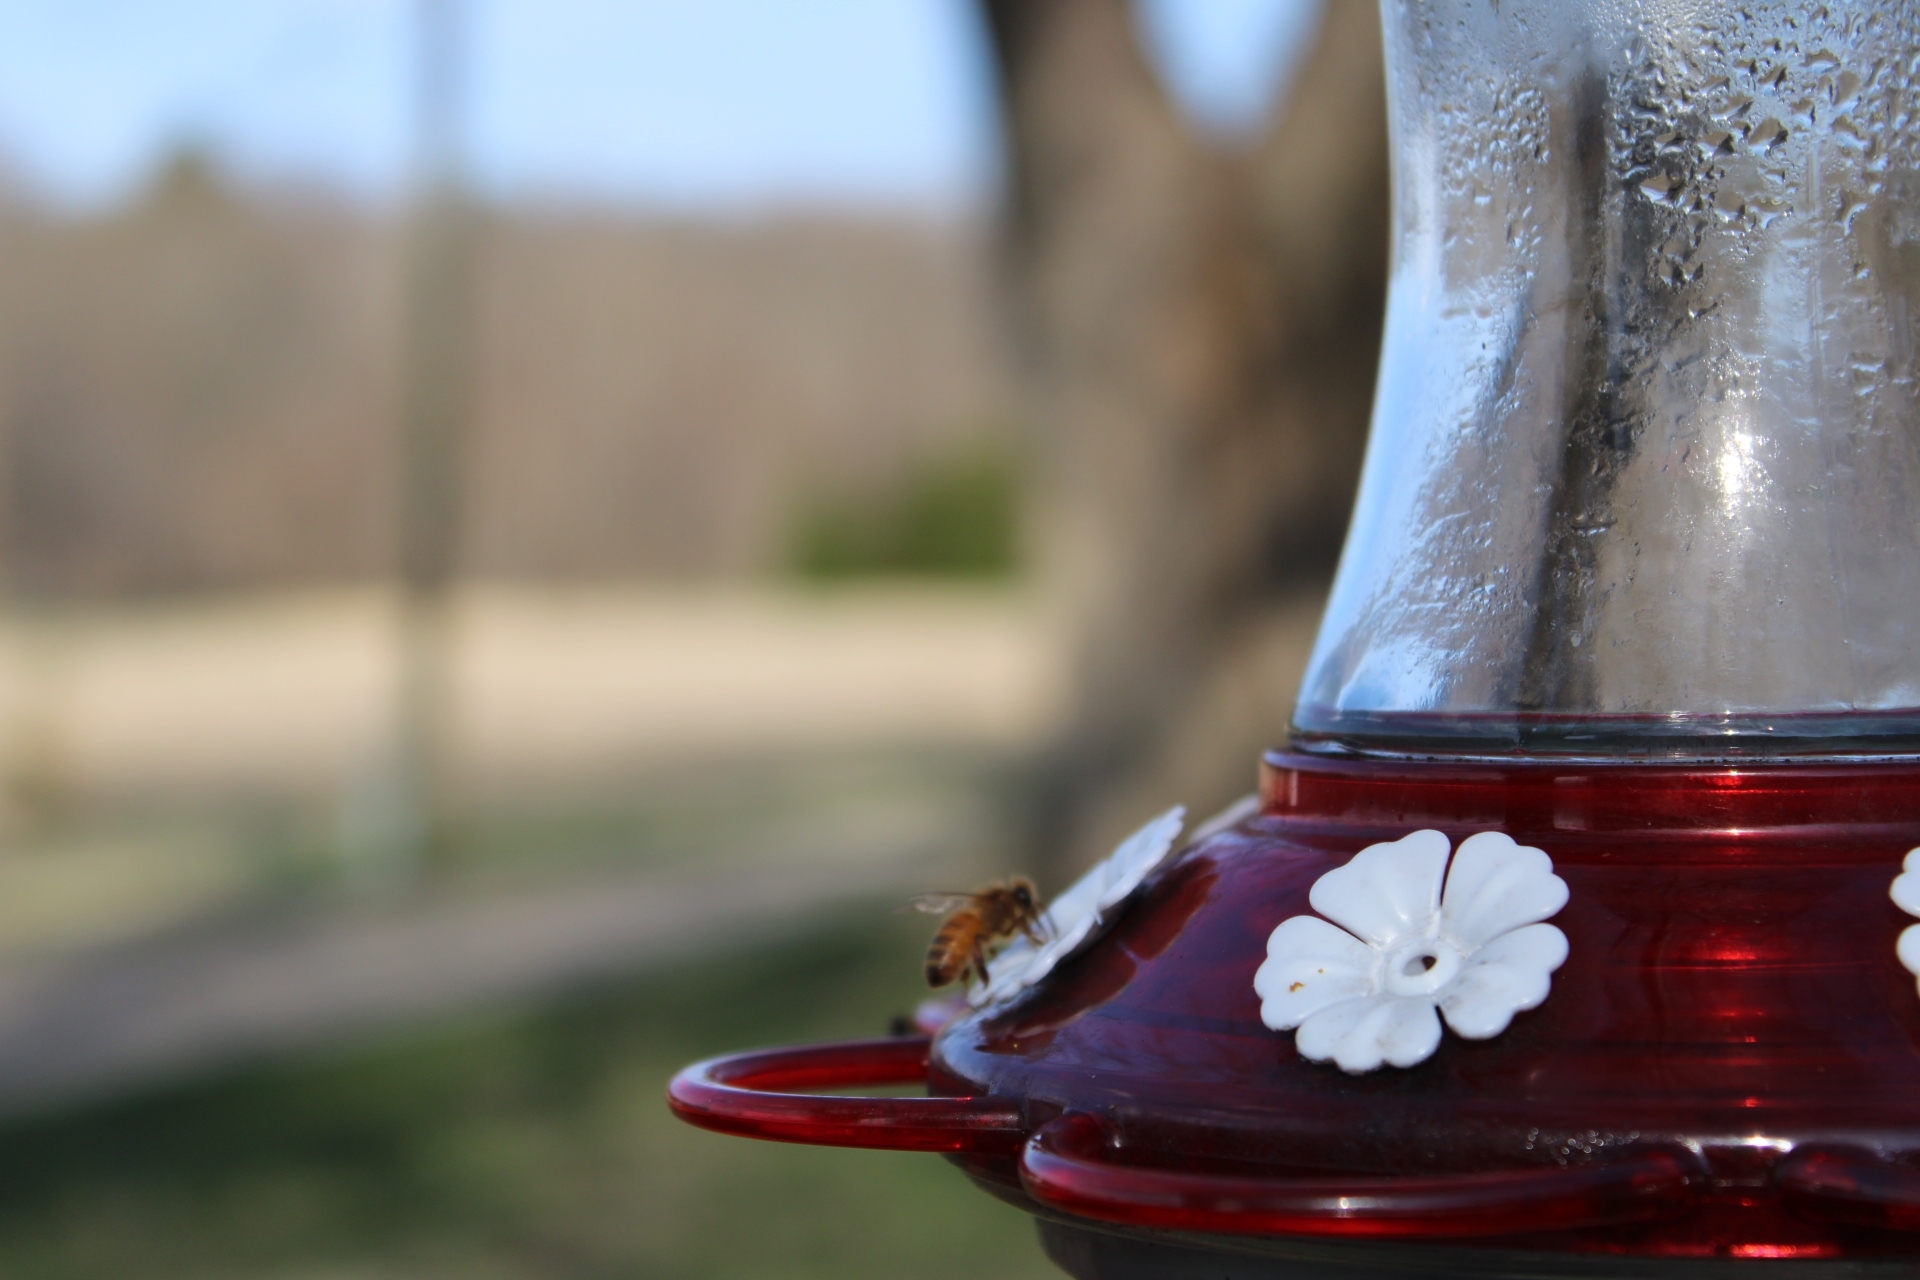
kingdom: Animalia
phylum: Arthropoda
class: Insecta
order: Hymenoptera
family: Apidae
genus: Apis
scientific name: Apis mellifera
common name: Honey bee
